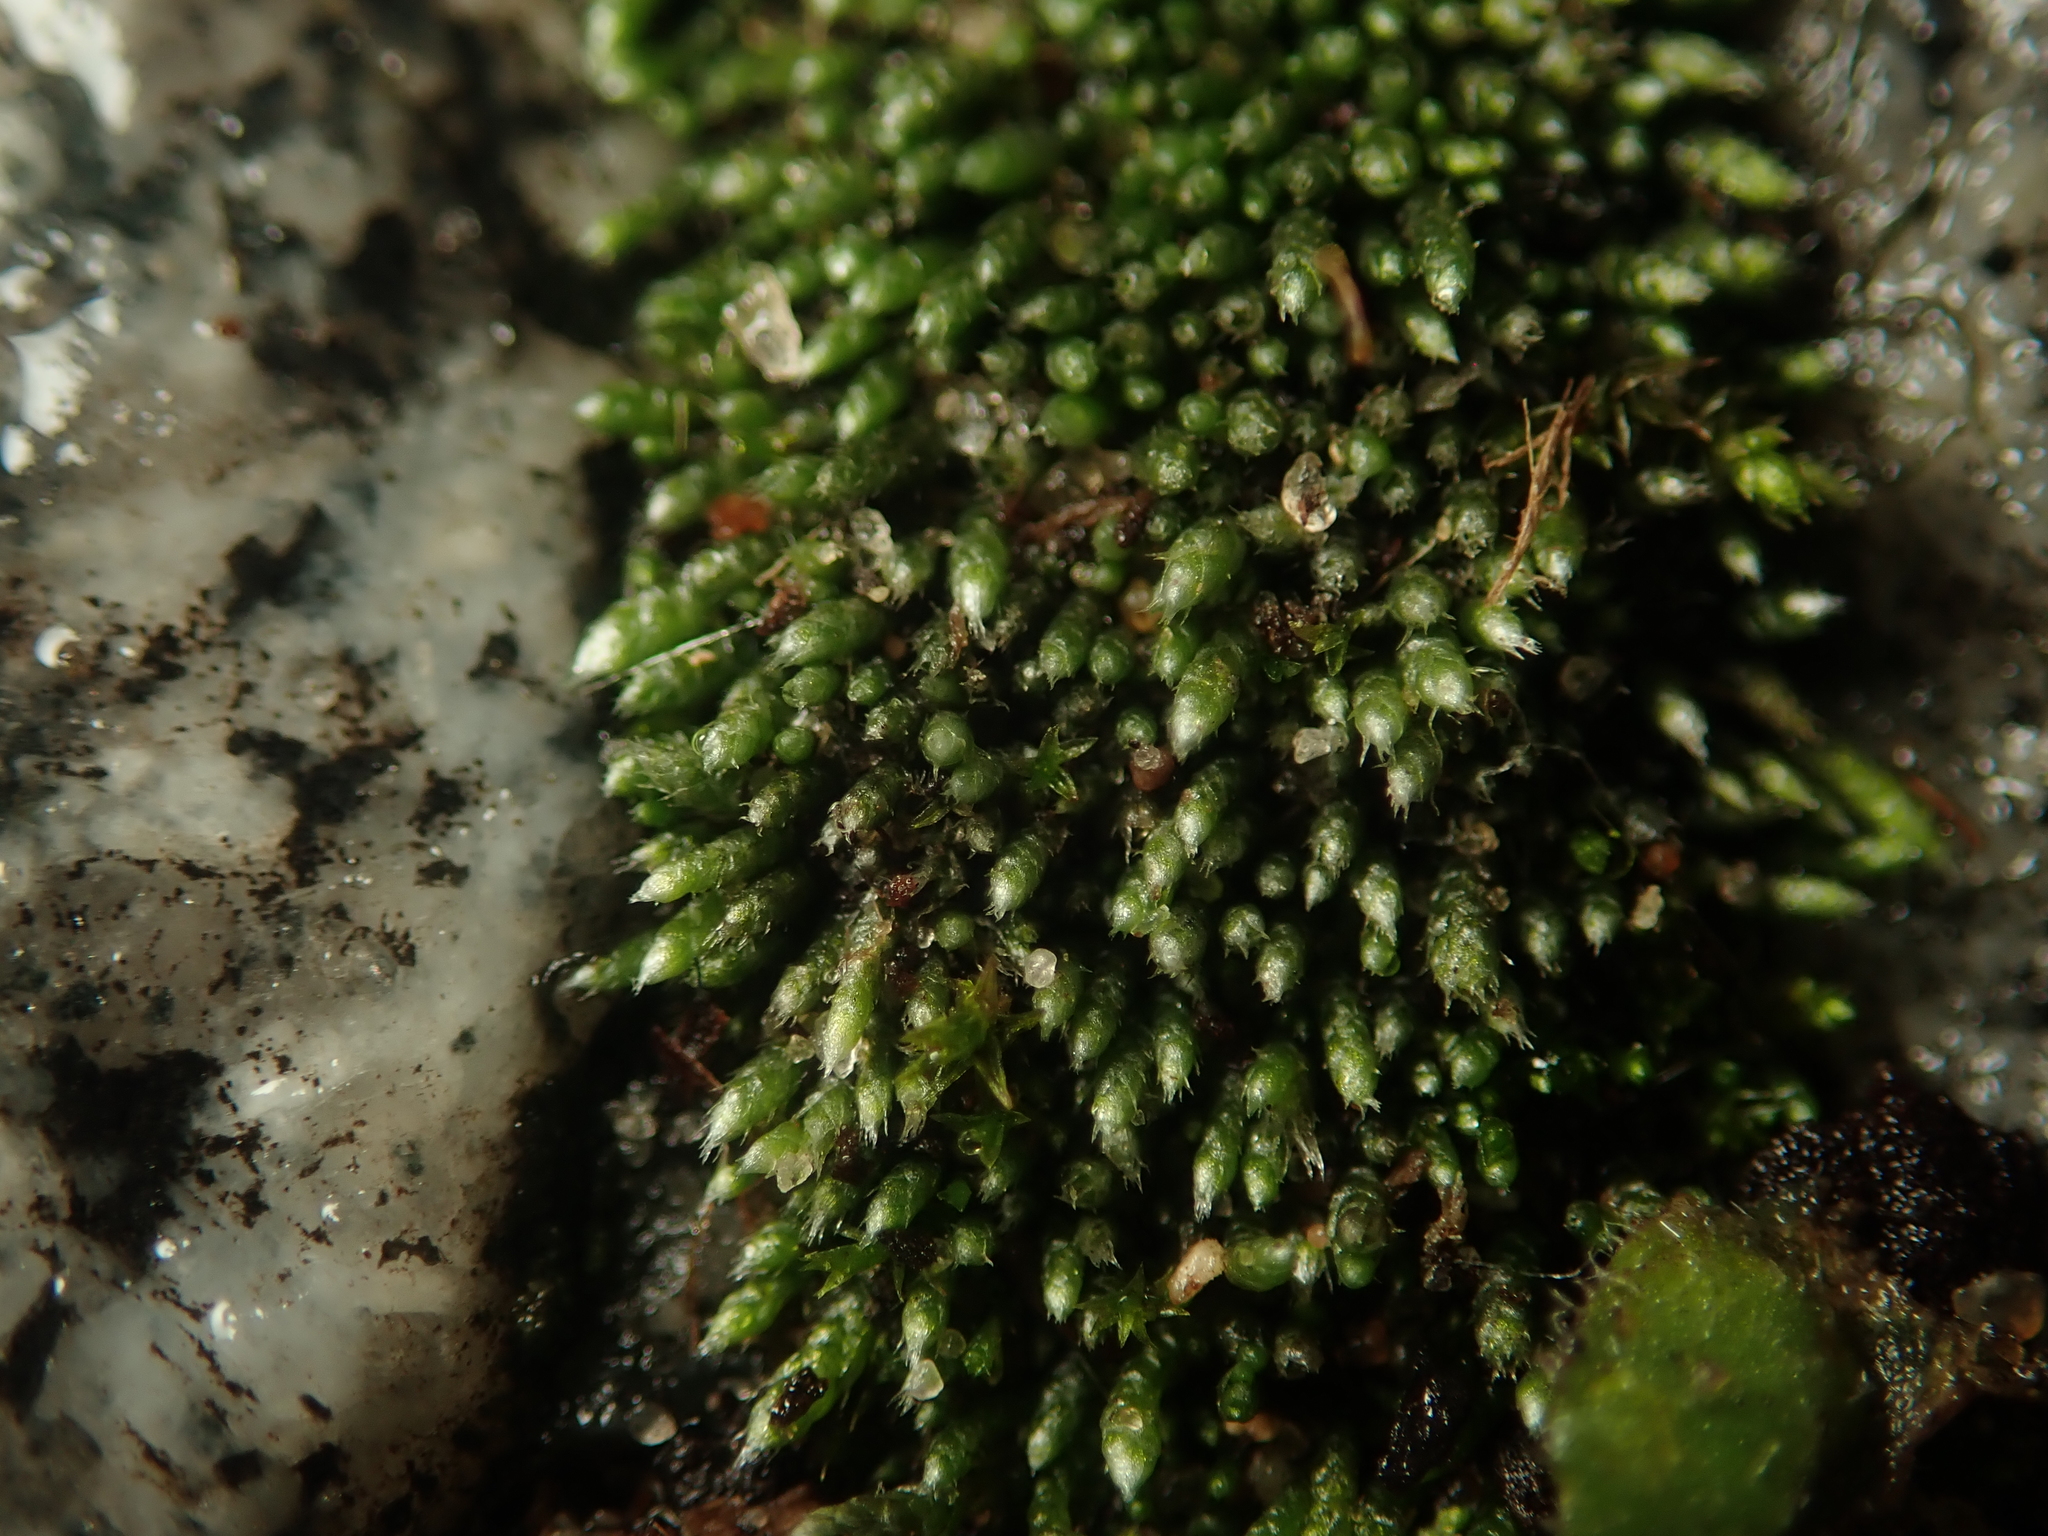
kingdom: Plantae
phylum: Bryophyta
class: Bryopsida
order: Bryales
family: Bryaceae
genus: Bryum
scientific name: Bryum argenteum
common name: Silver-moss
